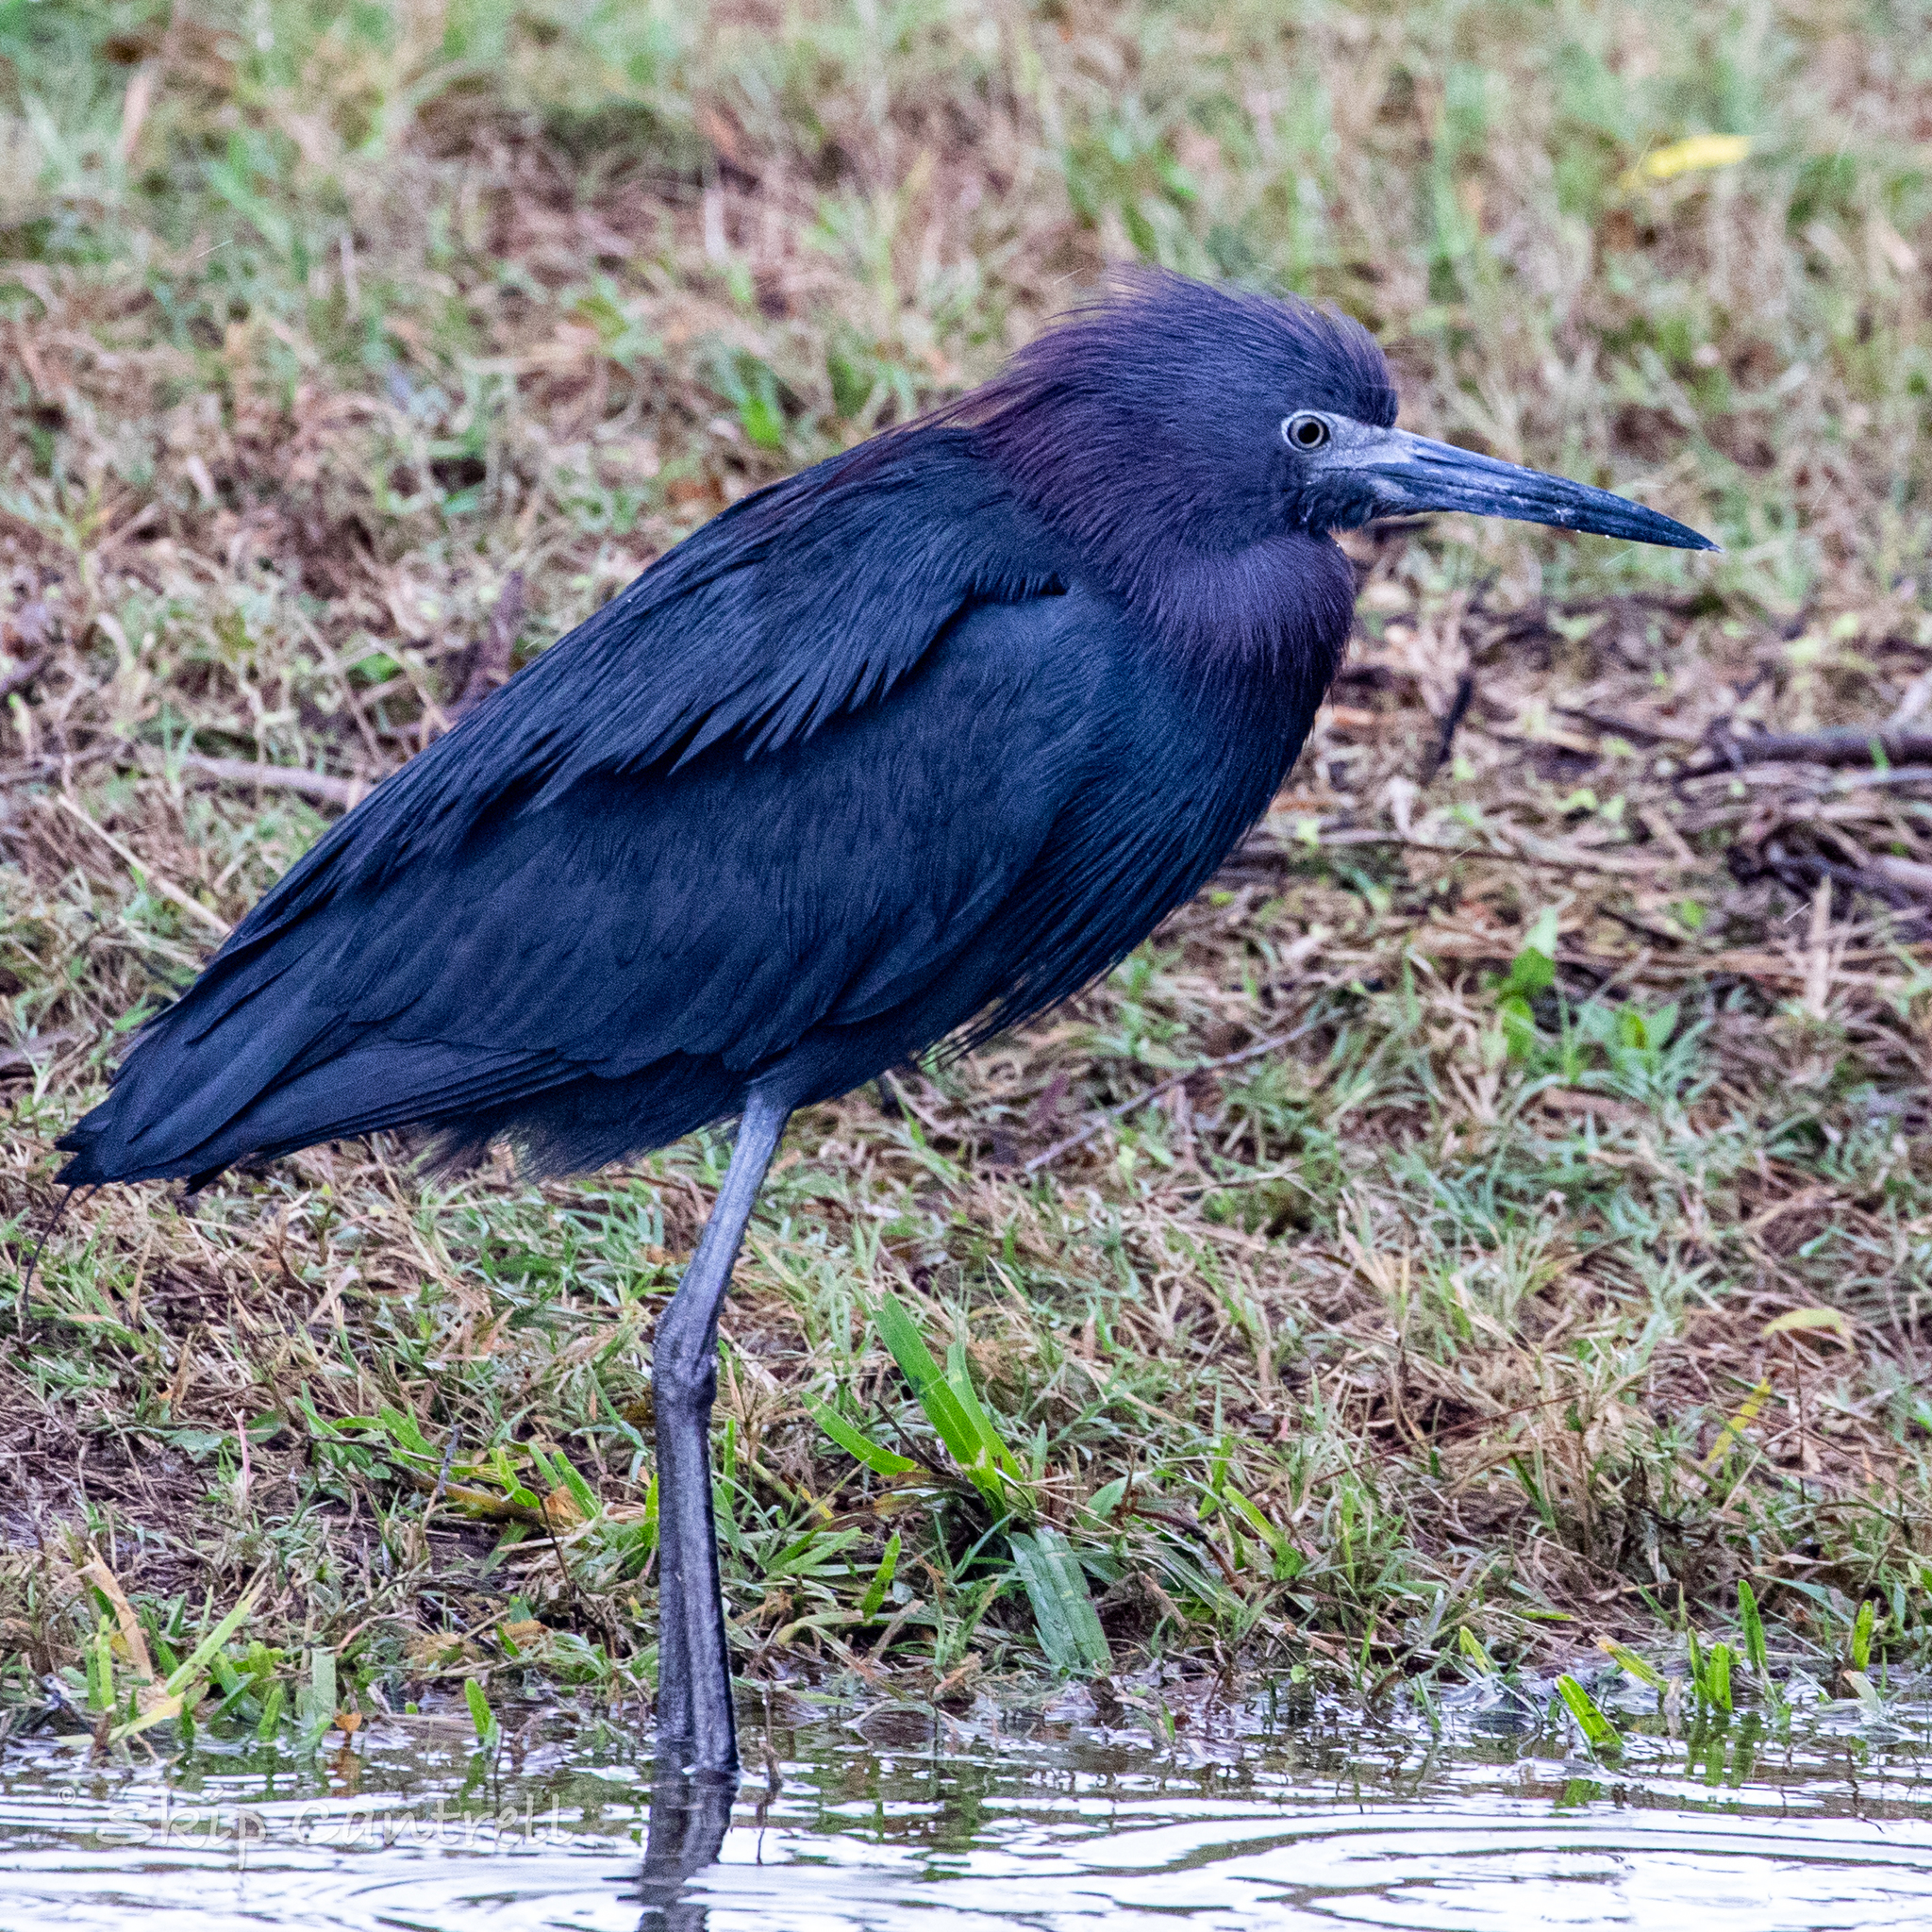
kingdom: Animalia
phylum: Chordata
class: Aves
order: Pelecaniformes
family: Ardeidae
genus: Egretta
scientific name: Egretta caerulea
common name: Little blue heron
